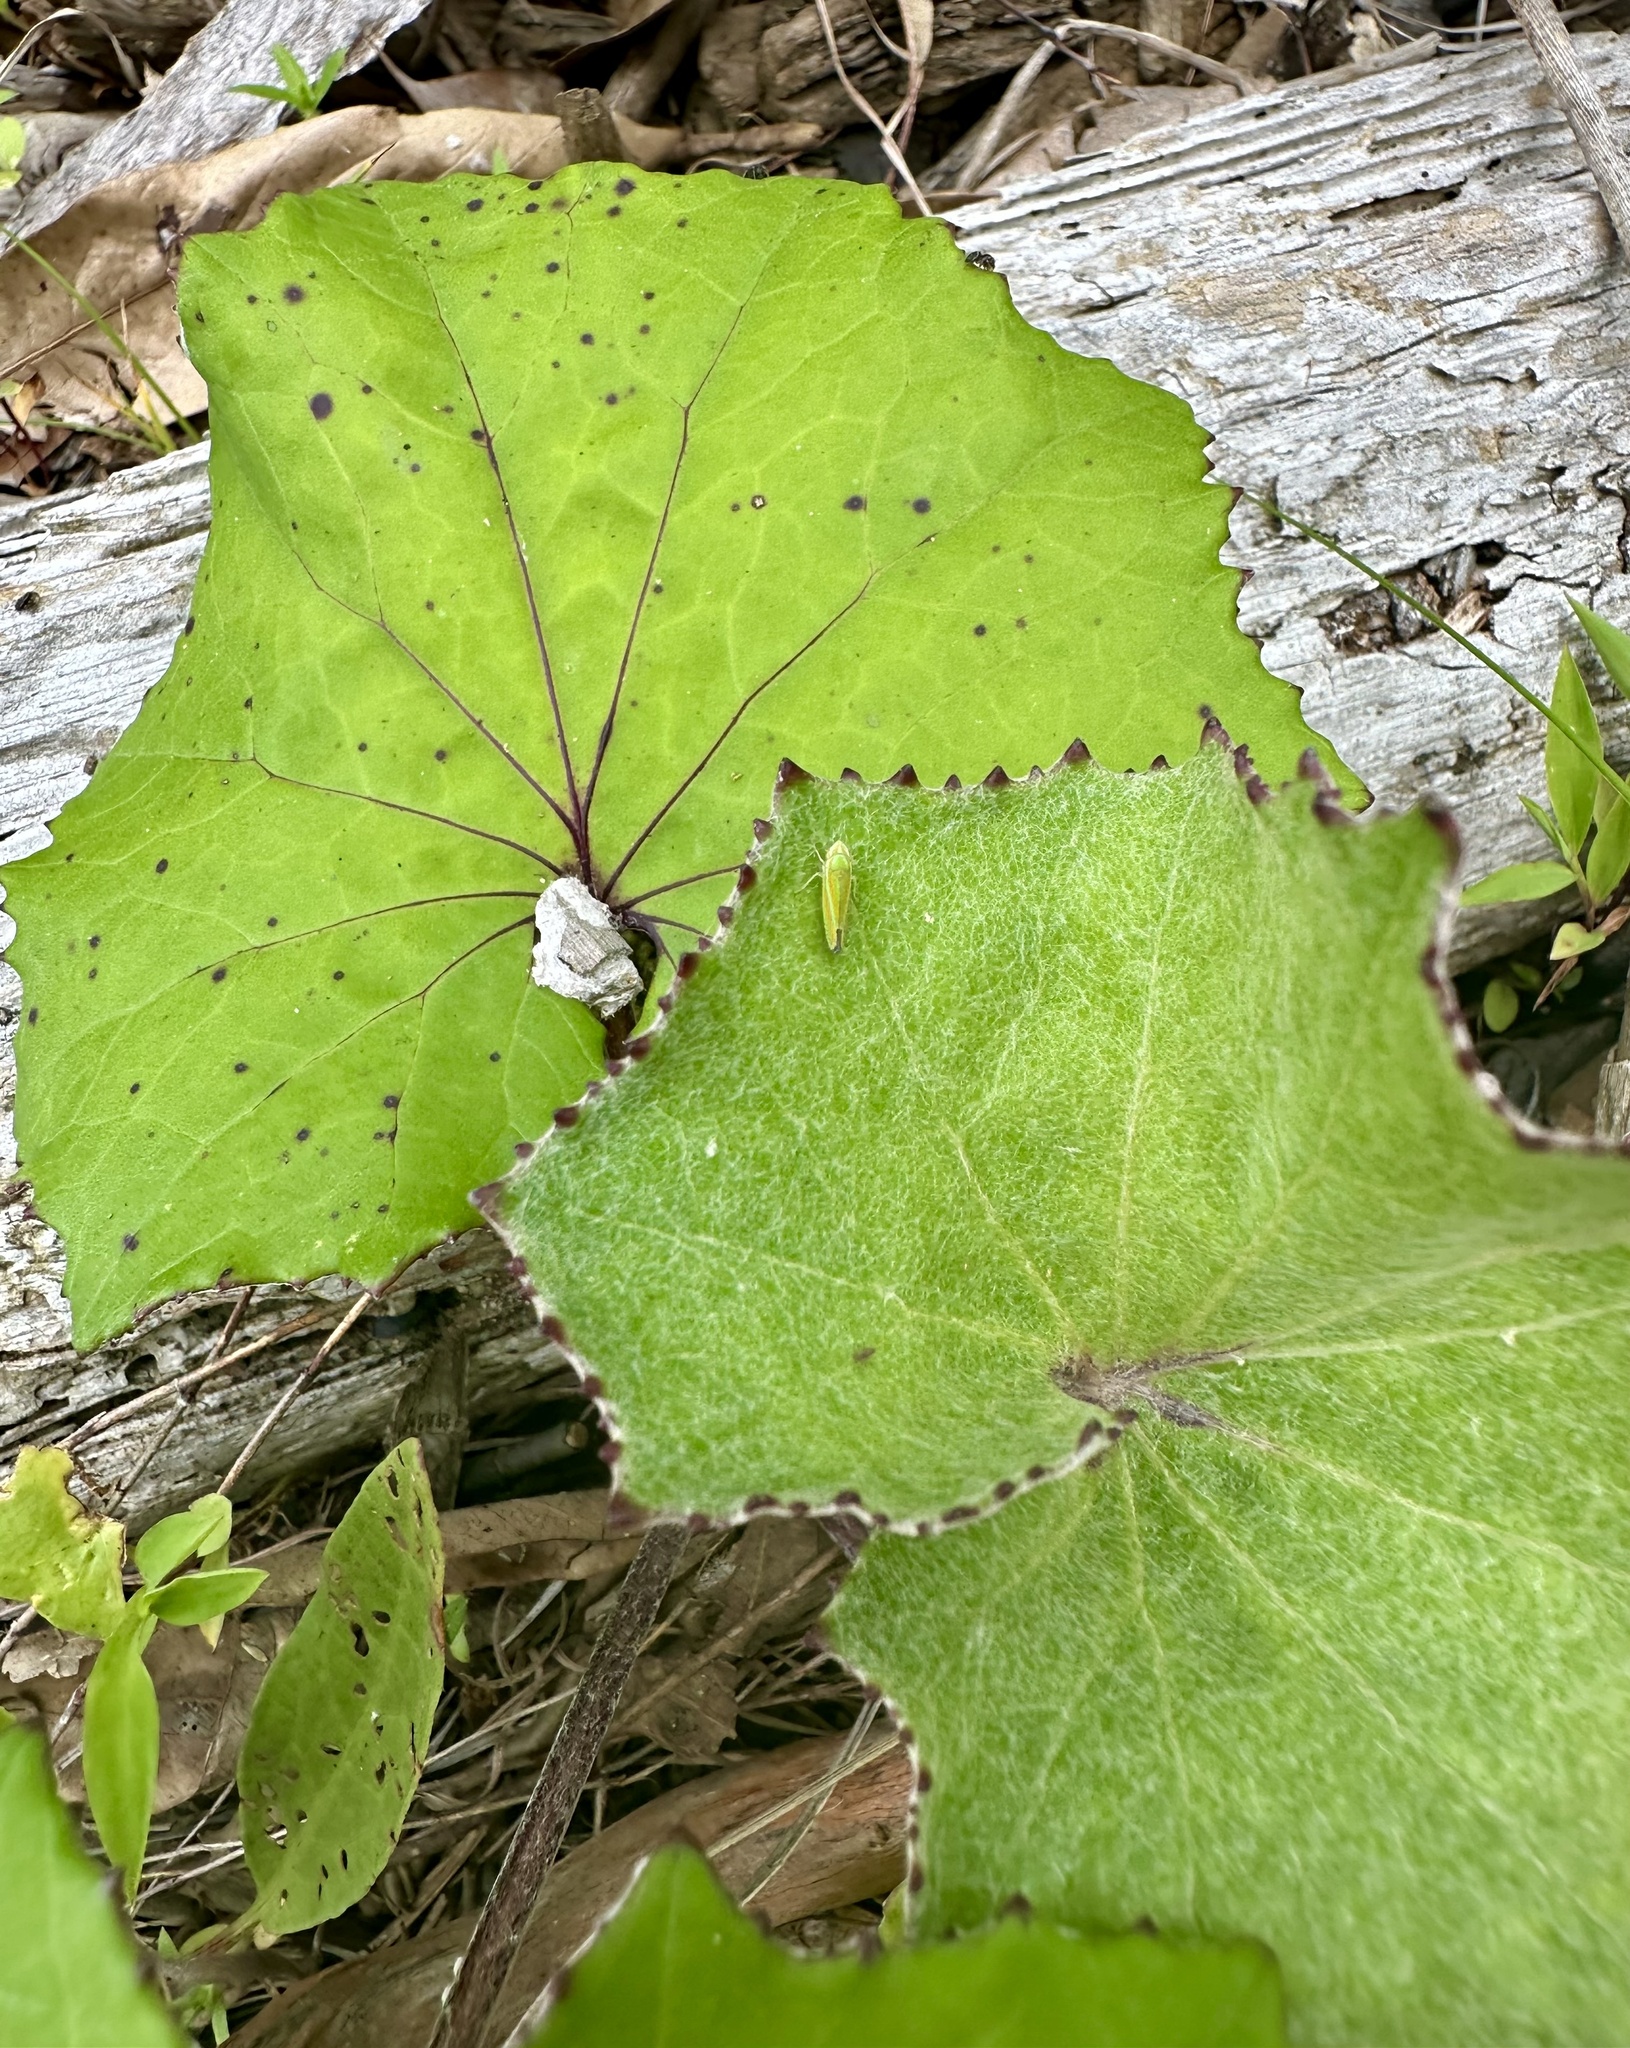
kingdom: Plantae
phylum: Tracheophyta
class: Magnoliopsida
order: Asterales
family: Asteraceae
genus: Tussilago
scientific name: Tussilago farfara
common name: Coltsfoot
